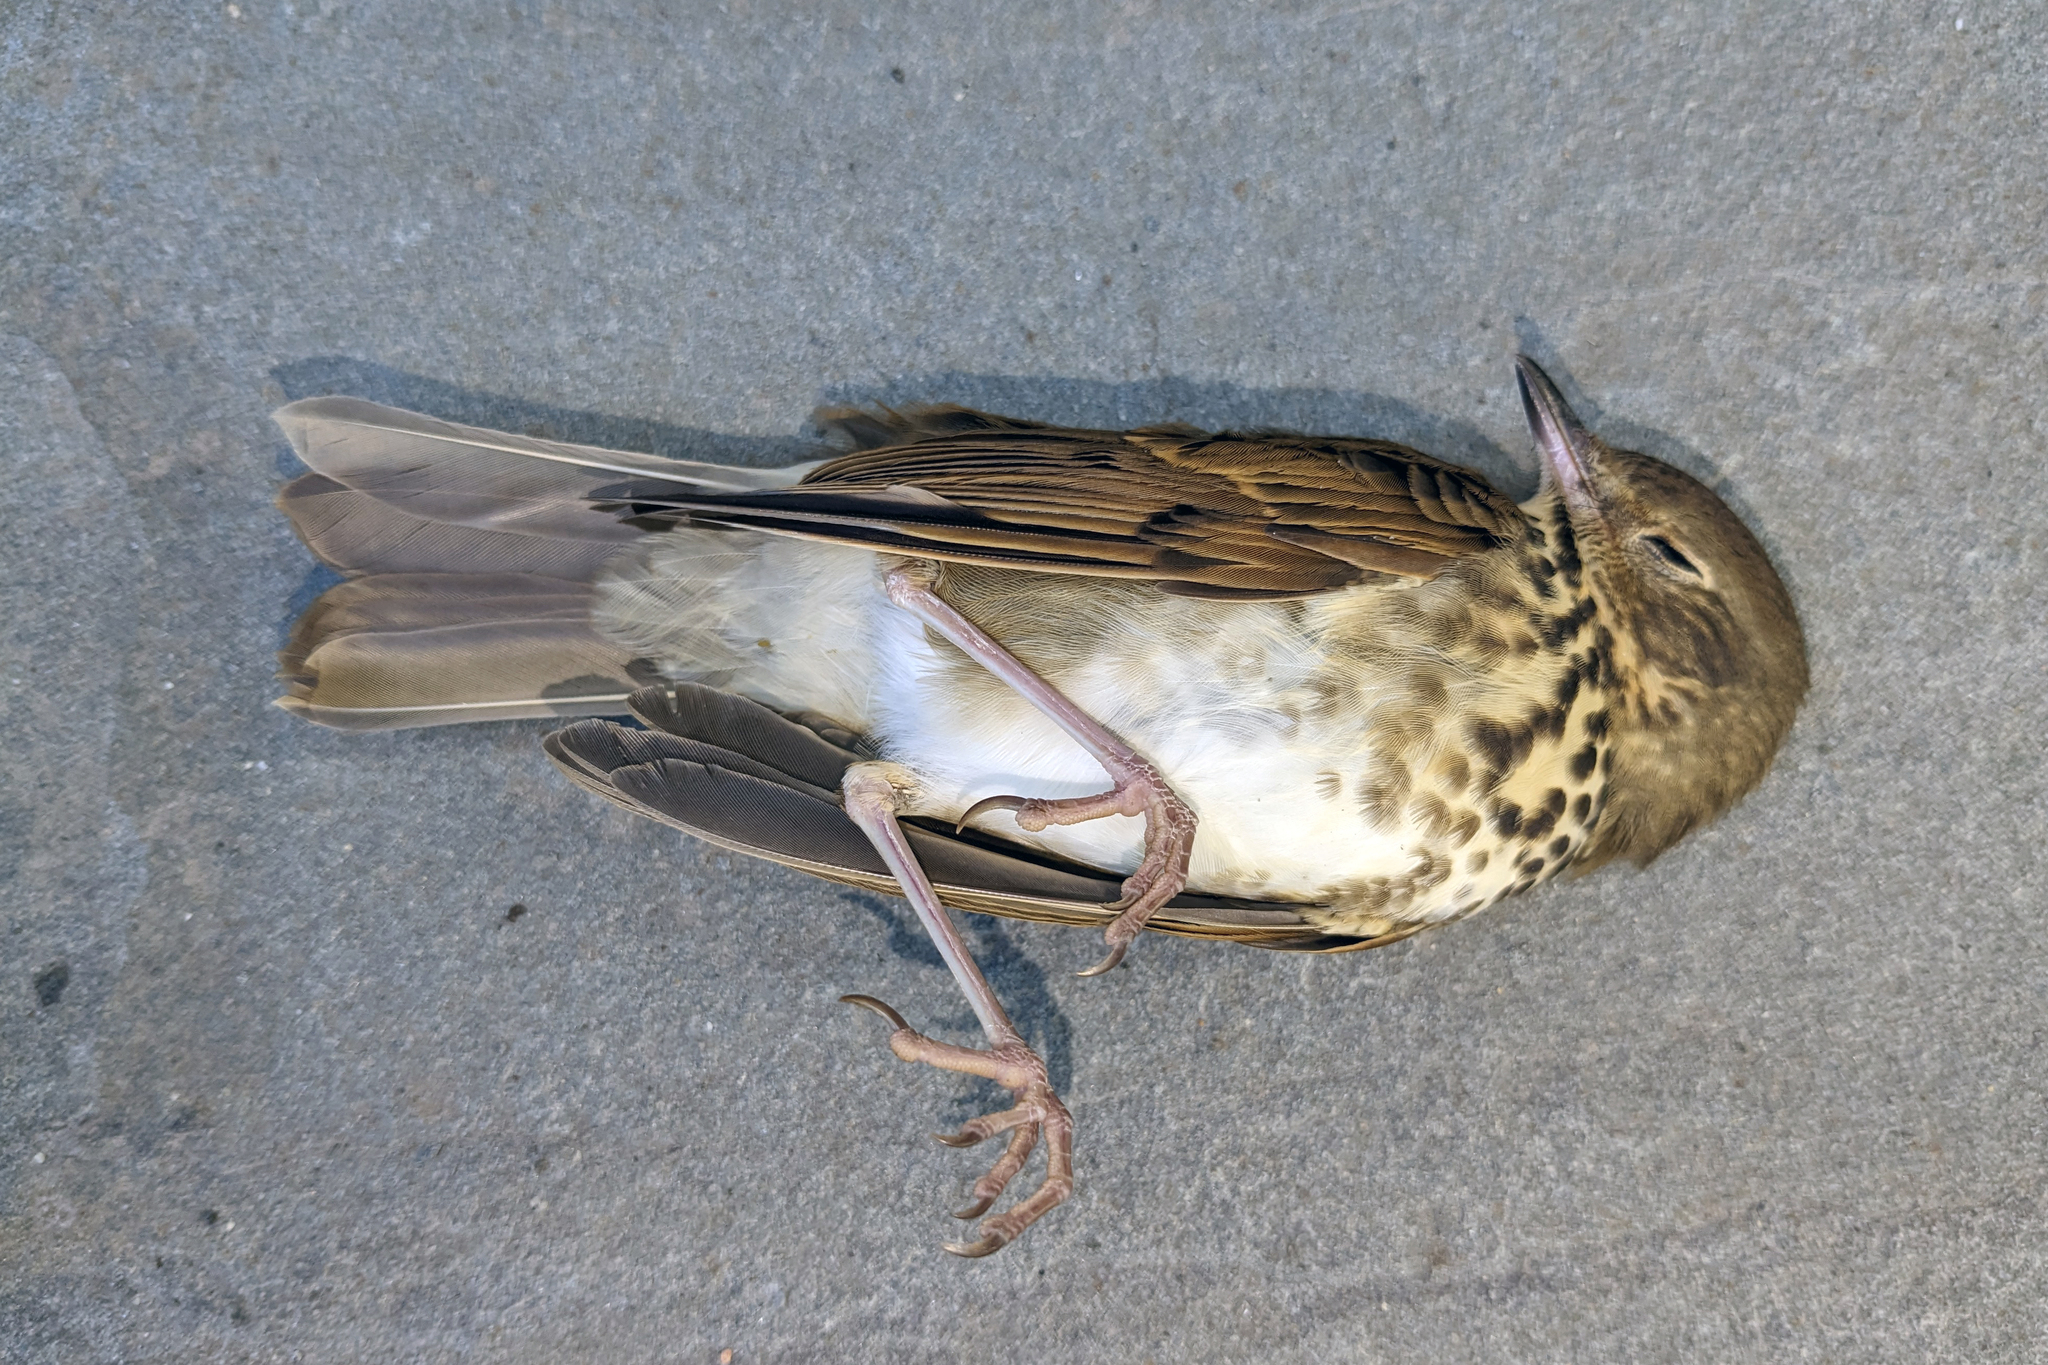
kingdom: Animalia
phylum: Chordata
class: Aves
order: Passeriformes
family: Turdidae
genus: Catharus
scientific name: Catharus guttatus
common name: Hermit thrush
